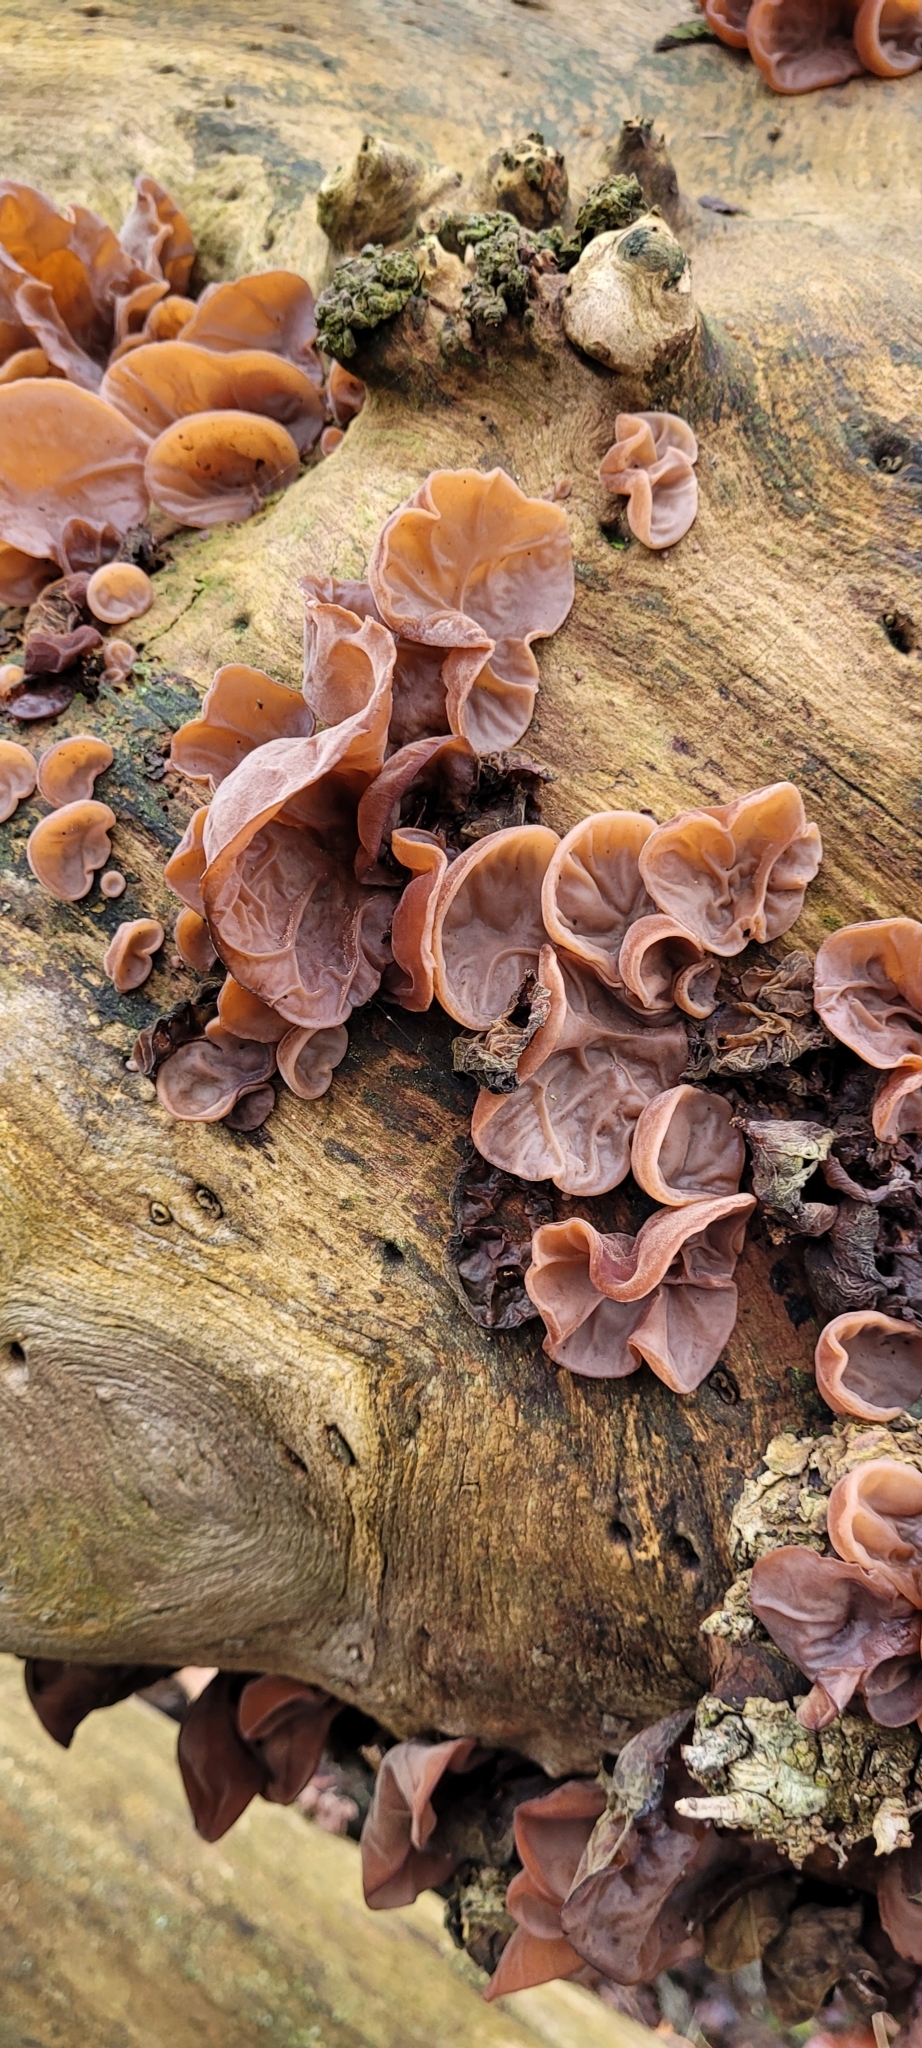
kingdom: Fungi
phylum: Basidiomycota
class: Agaricomycetes
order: Auriculariales
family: Auriculariaceae
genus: Auricularia
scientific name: Auricularia auricula-judae
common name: Jelly ear
